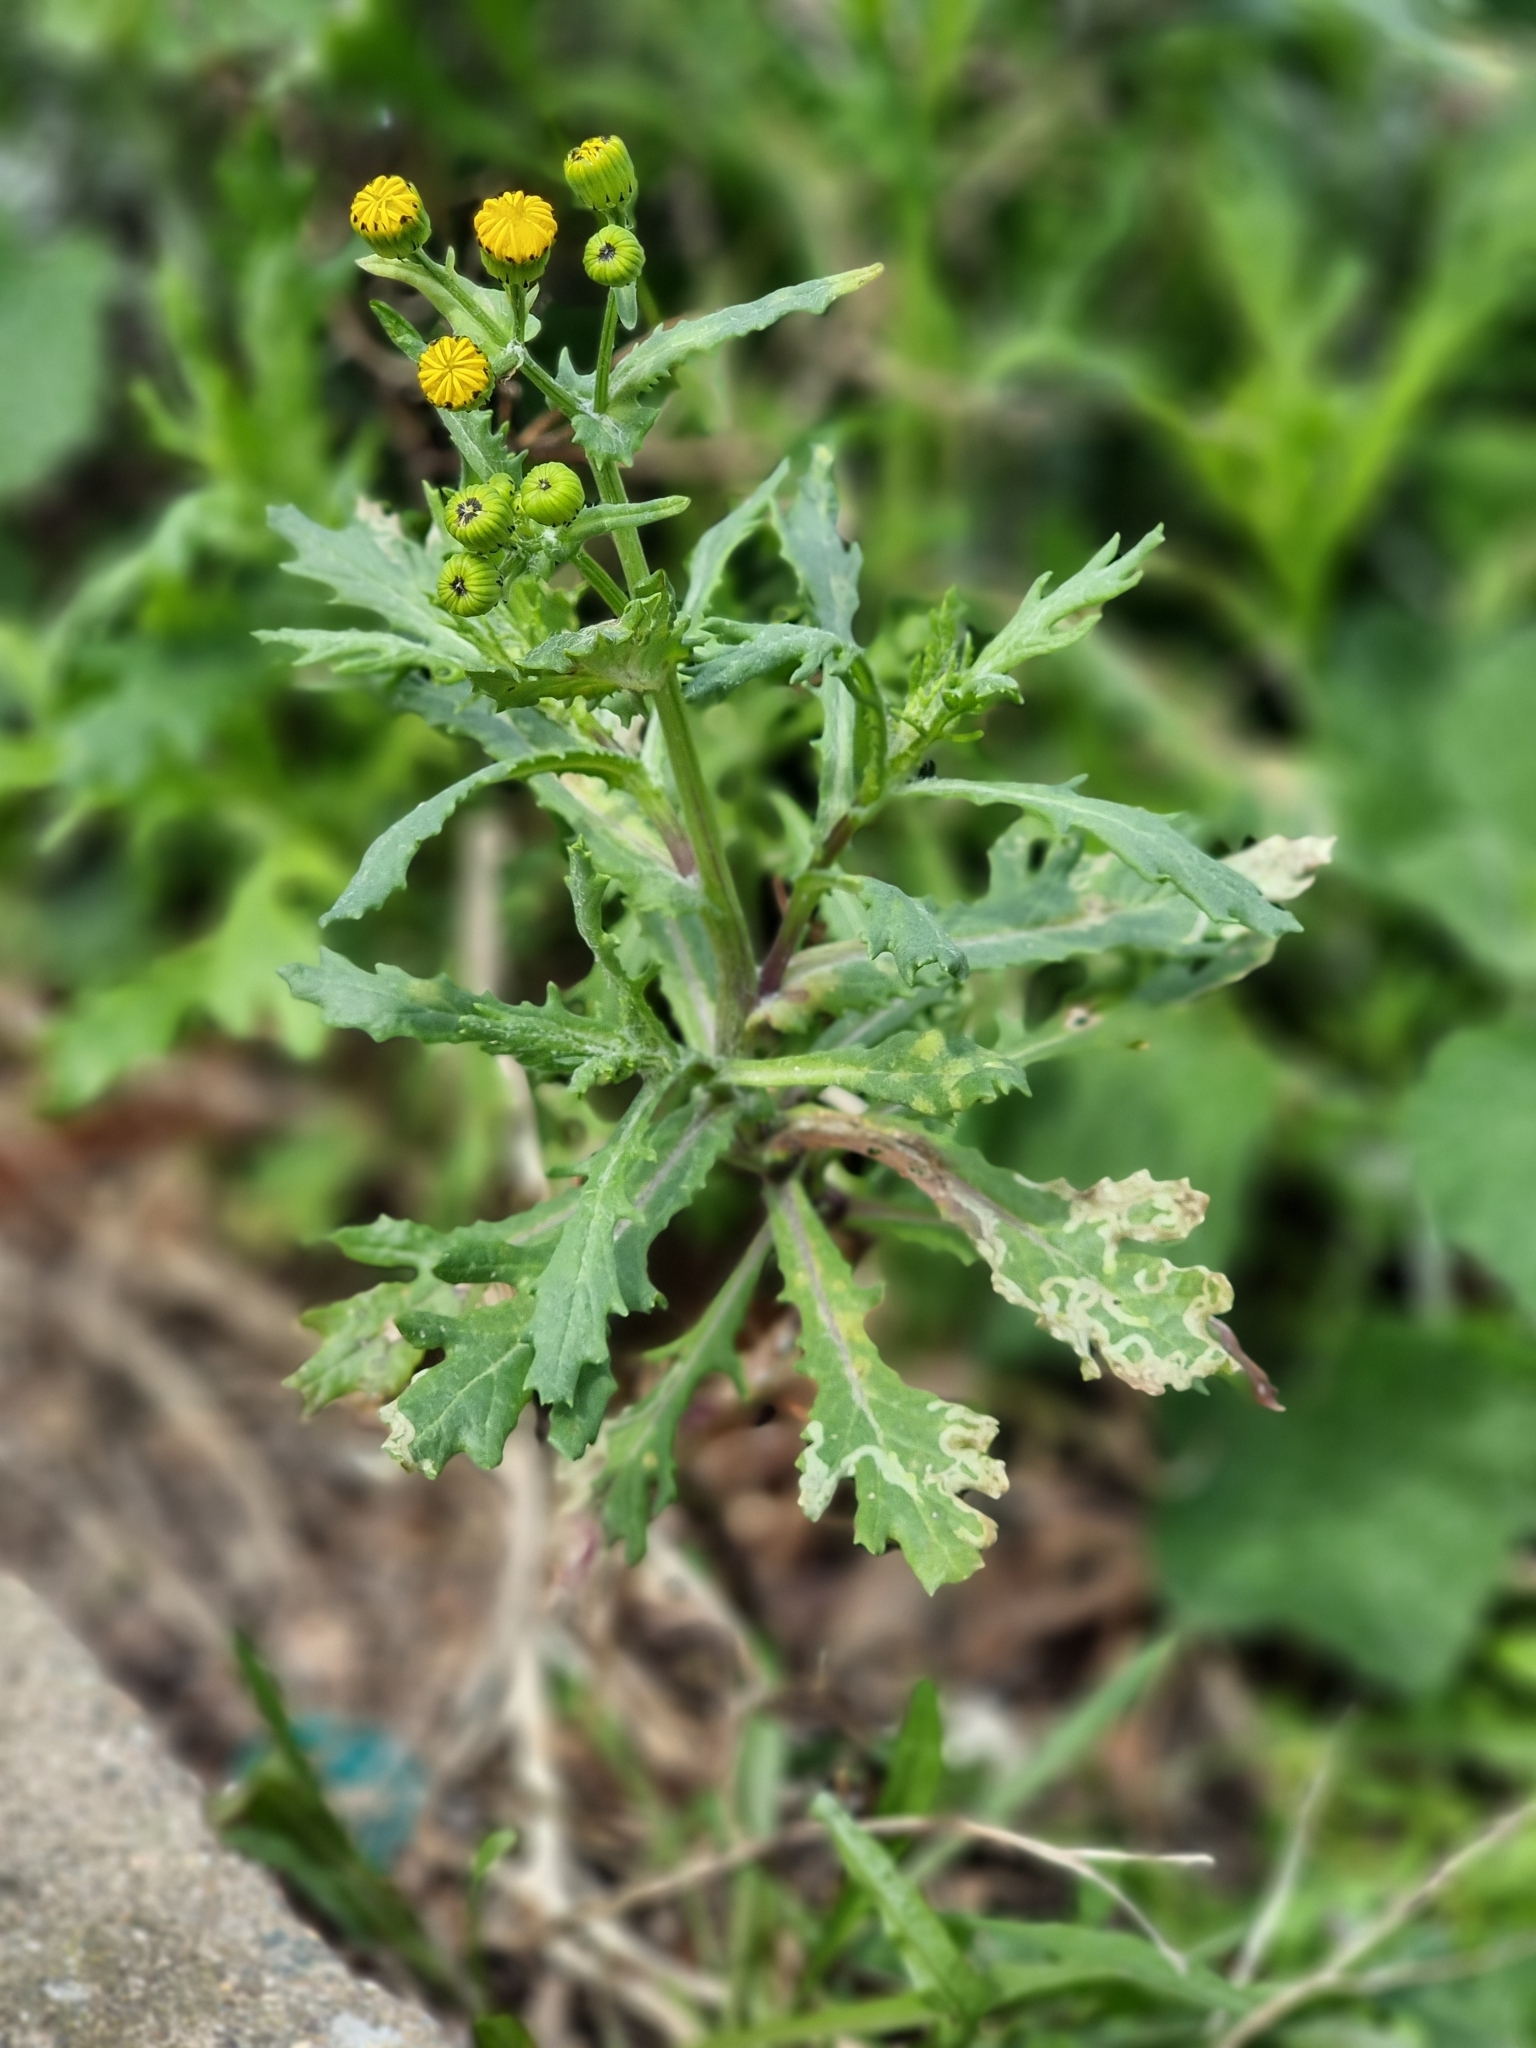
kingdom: Plantae
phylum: Tracheophyta
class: Magnoliopsida
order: Asterales
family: Asteraceae
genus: Senecio
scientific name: Senecio squalidus
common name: Oxford ragwort
